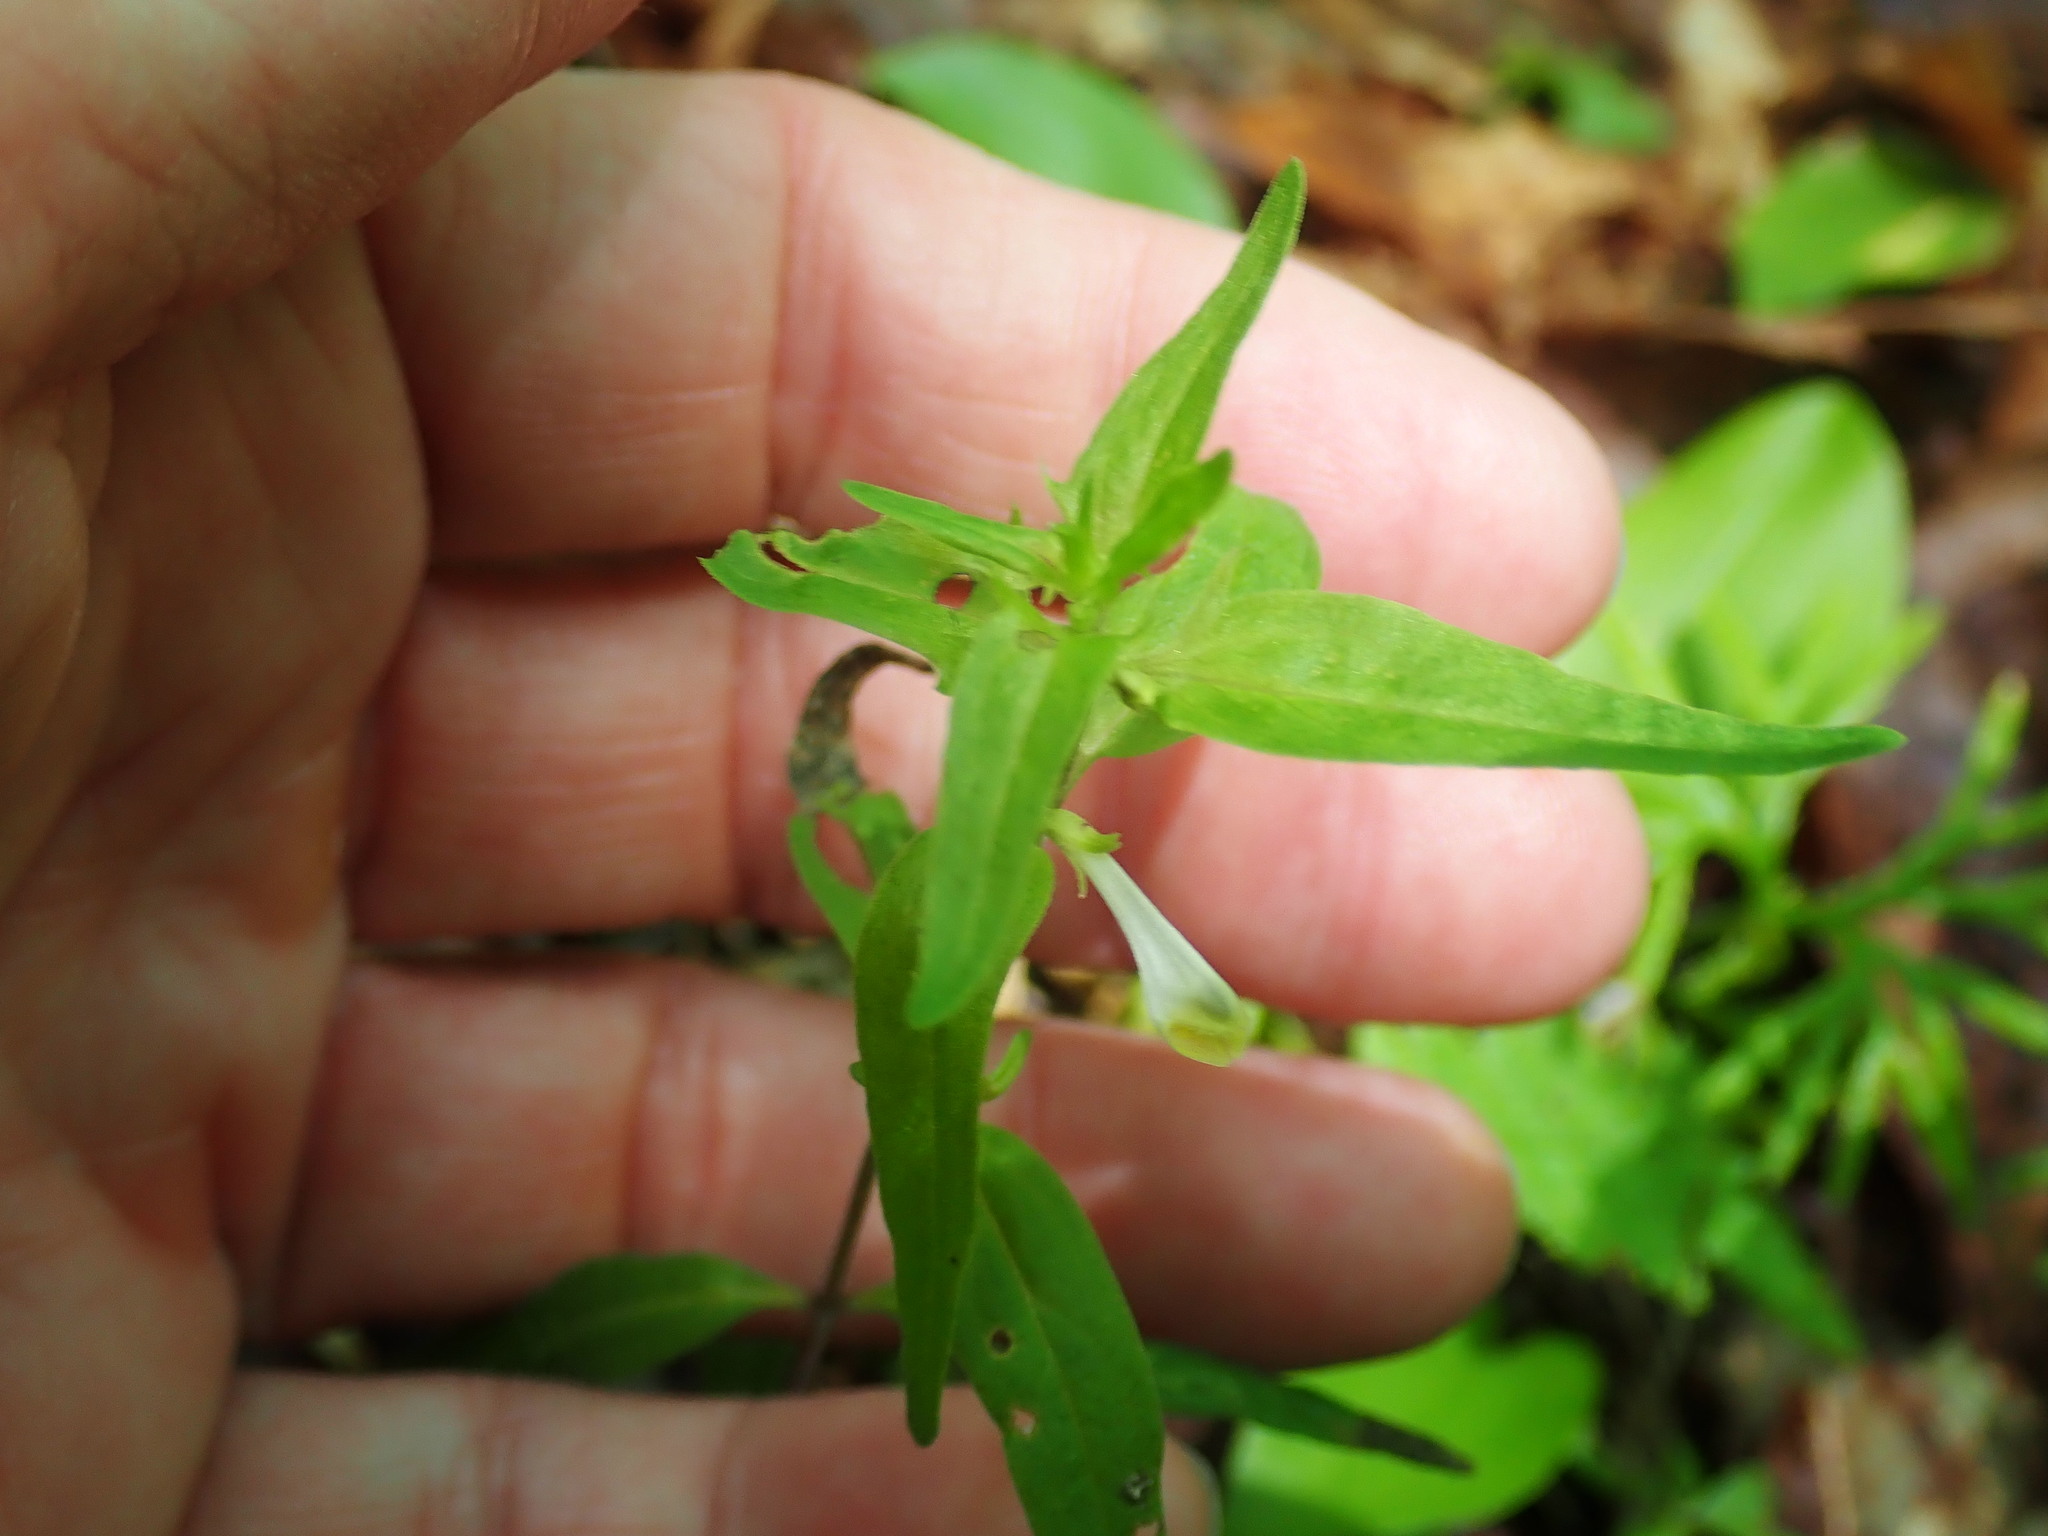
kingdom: Plantae
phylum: Tracheophyta
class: Magnoliopsida
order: Lamiales
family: Orobanchaceae
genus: Melampyrum
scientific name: Melampyrum lineare
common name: American cow-wheat
